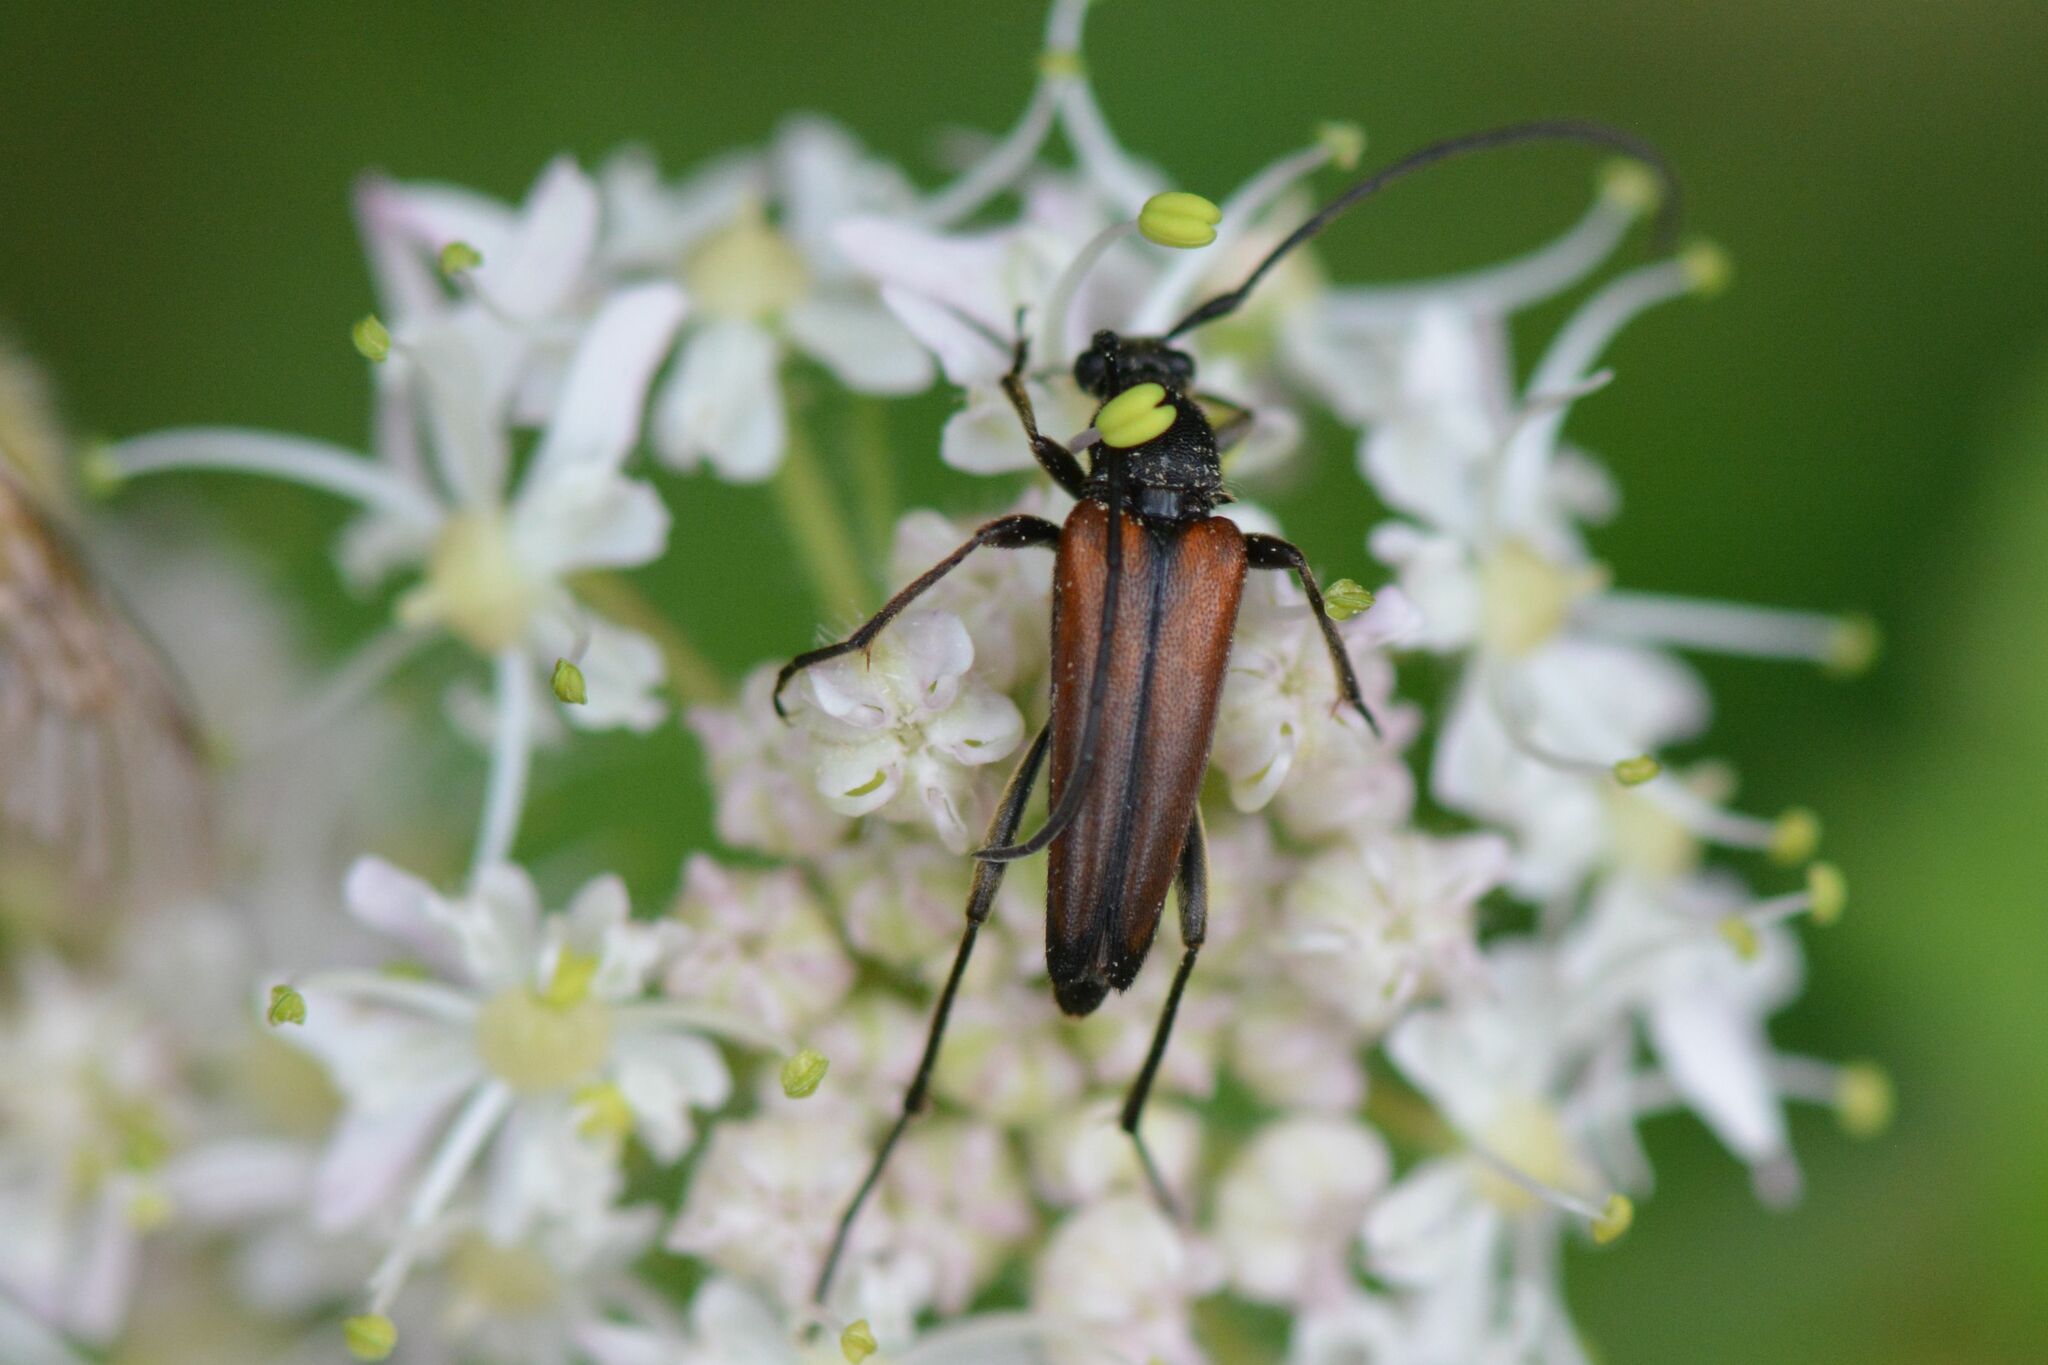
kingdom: Animalia
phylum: Arthropoda
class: Insecta
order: Coleoptera
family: Cerambycidae
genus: Stenurella
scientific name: Stenurella melanura
